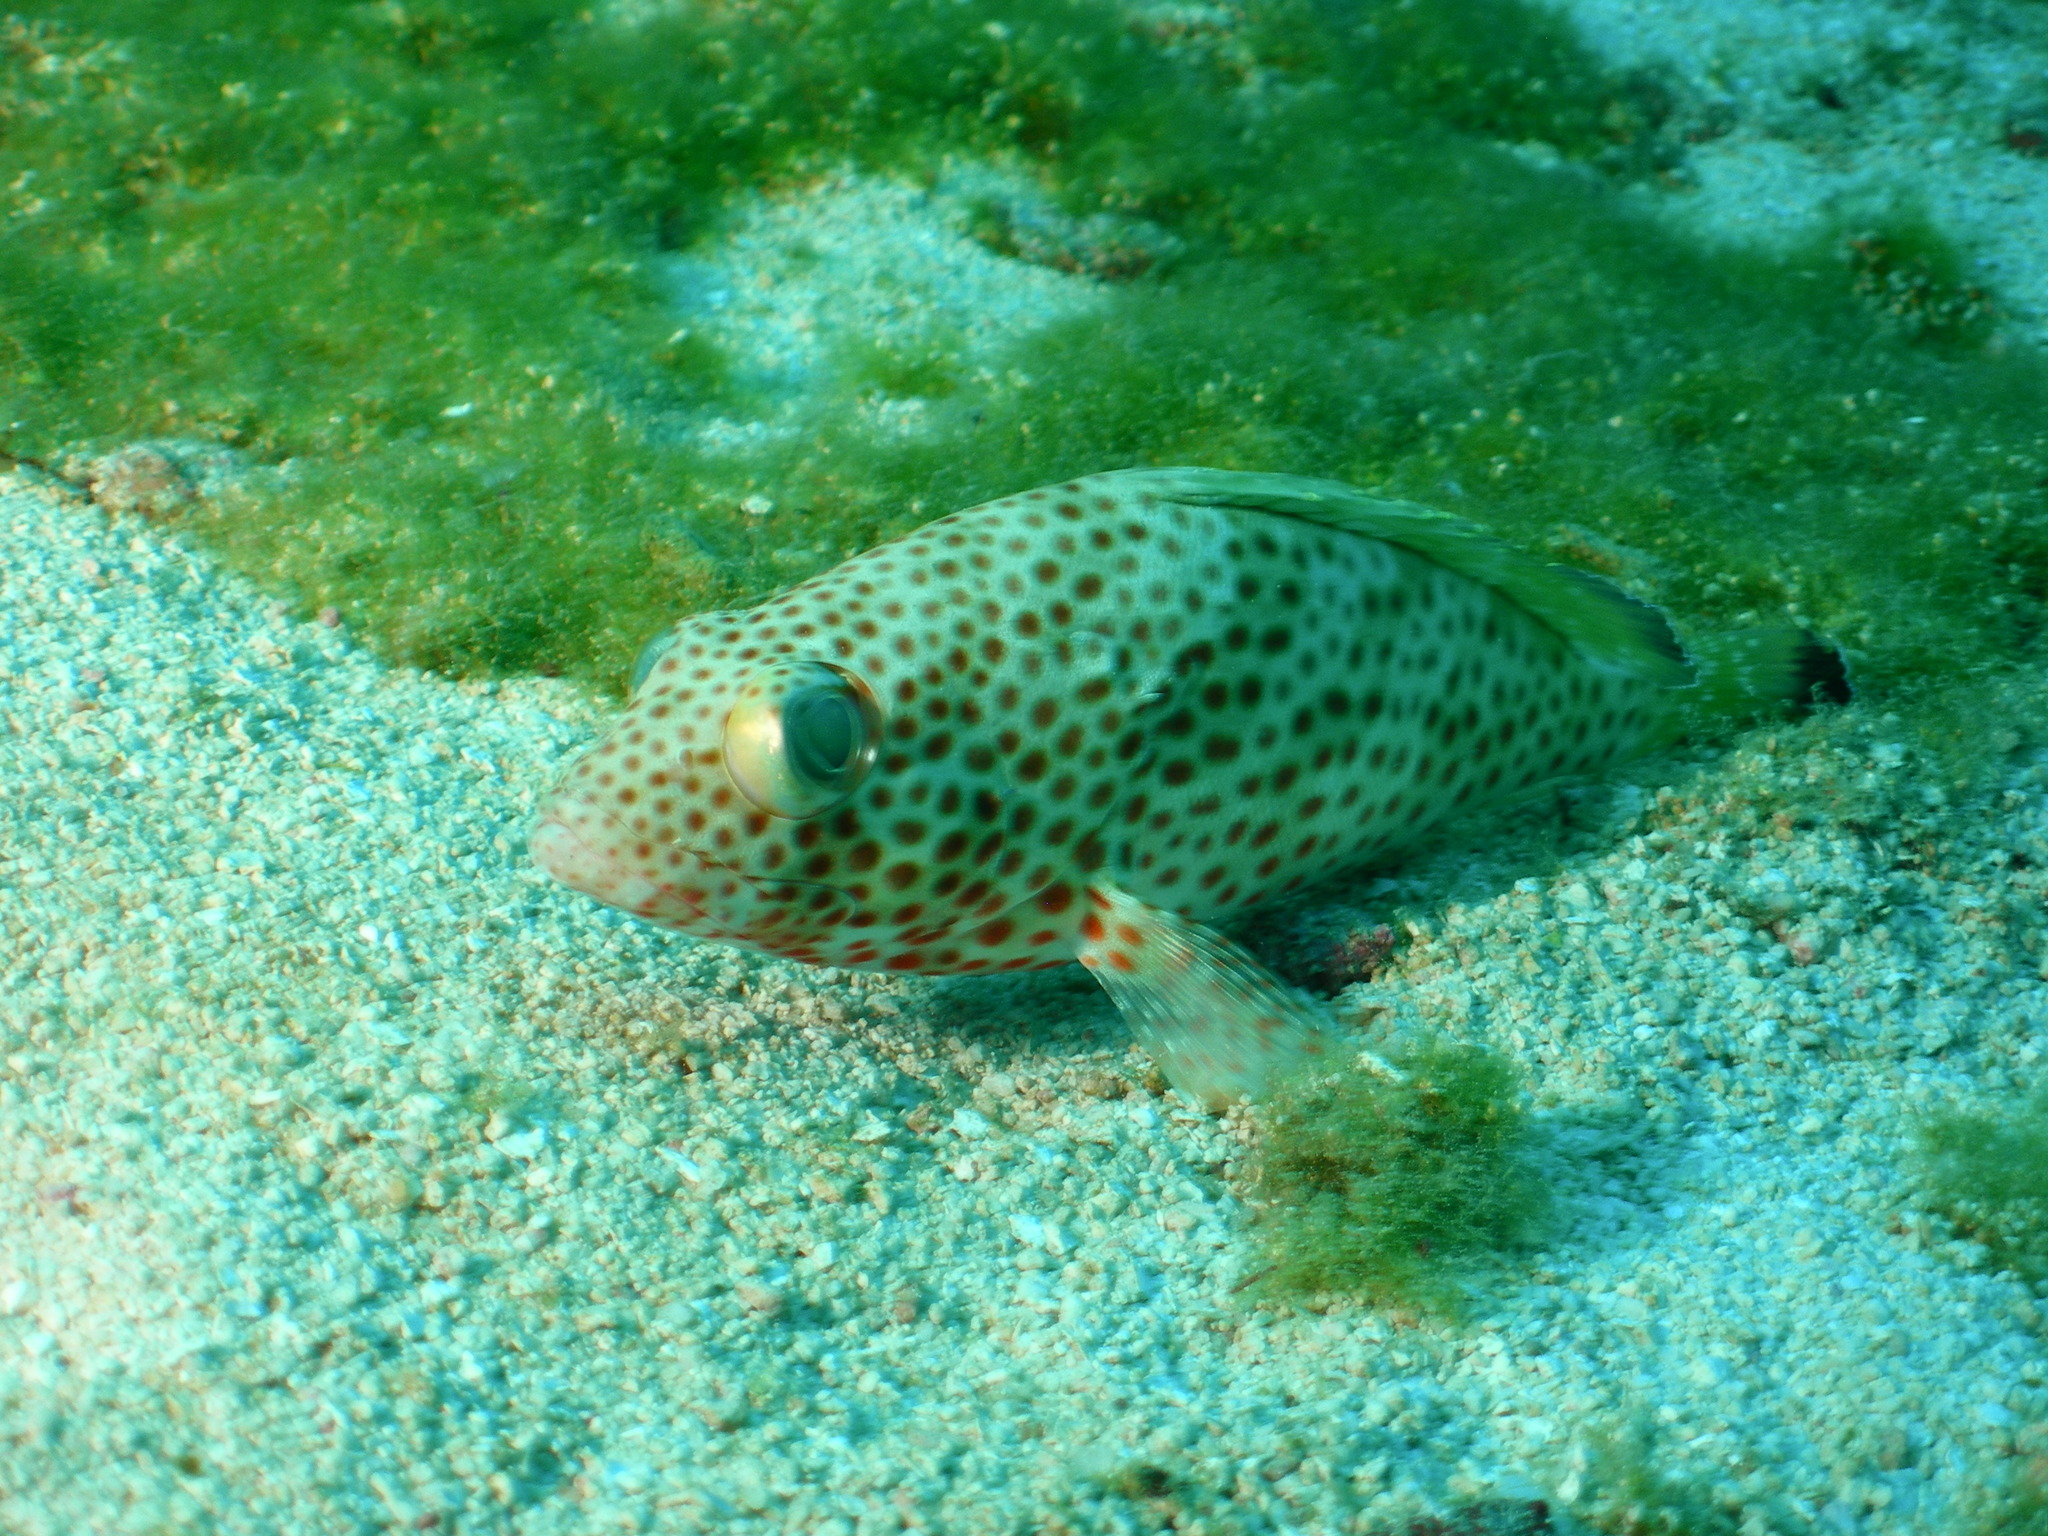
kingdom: Animalia
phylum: Chordata
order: Perciformes
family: Serranidae
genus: Epinephelus
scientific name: Epinephelus guttatus
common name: Red hind
